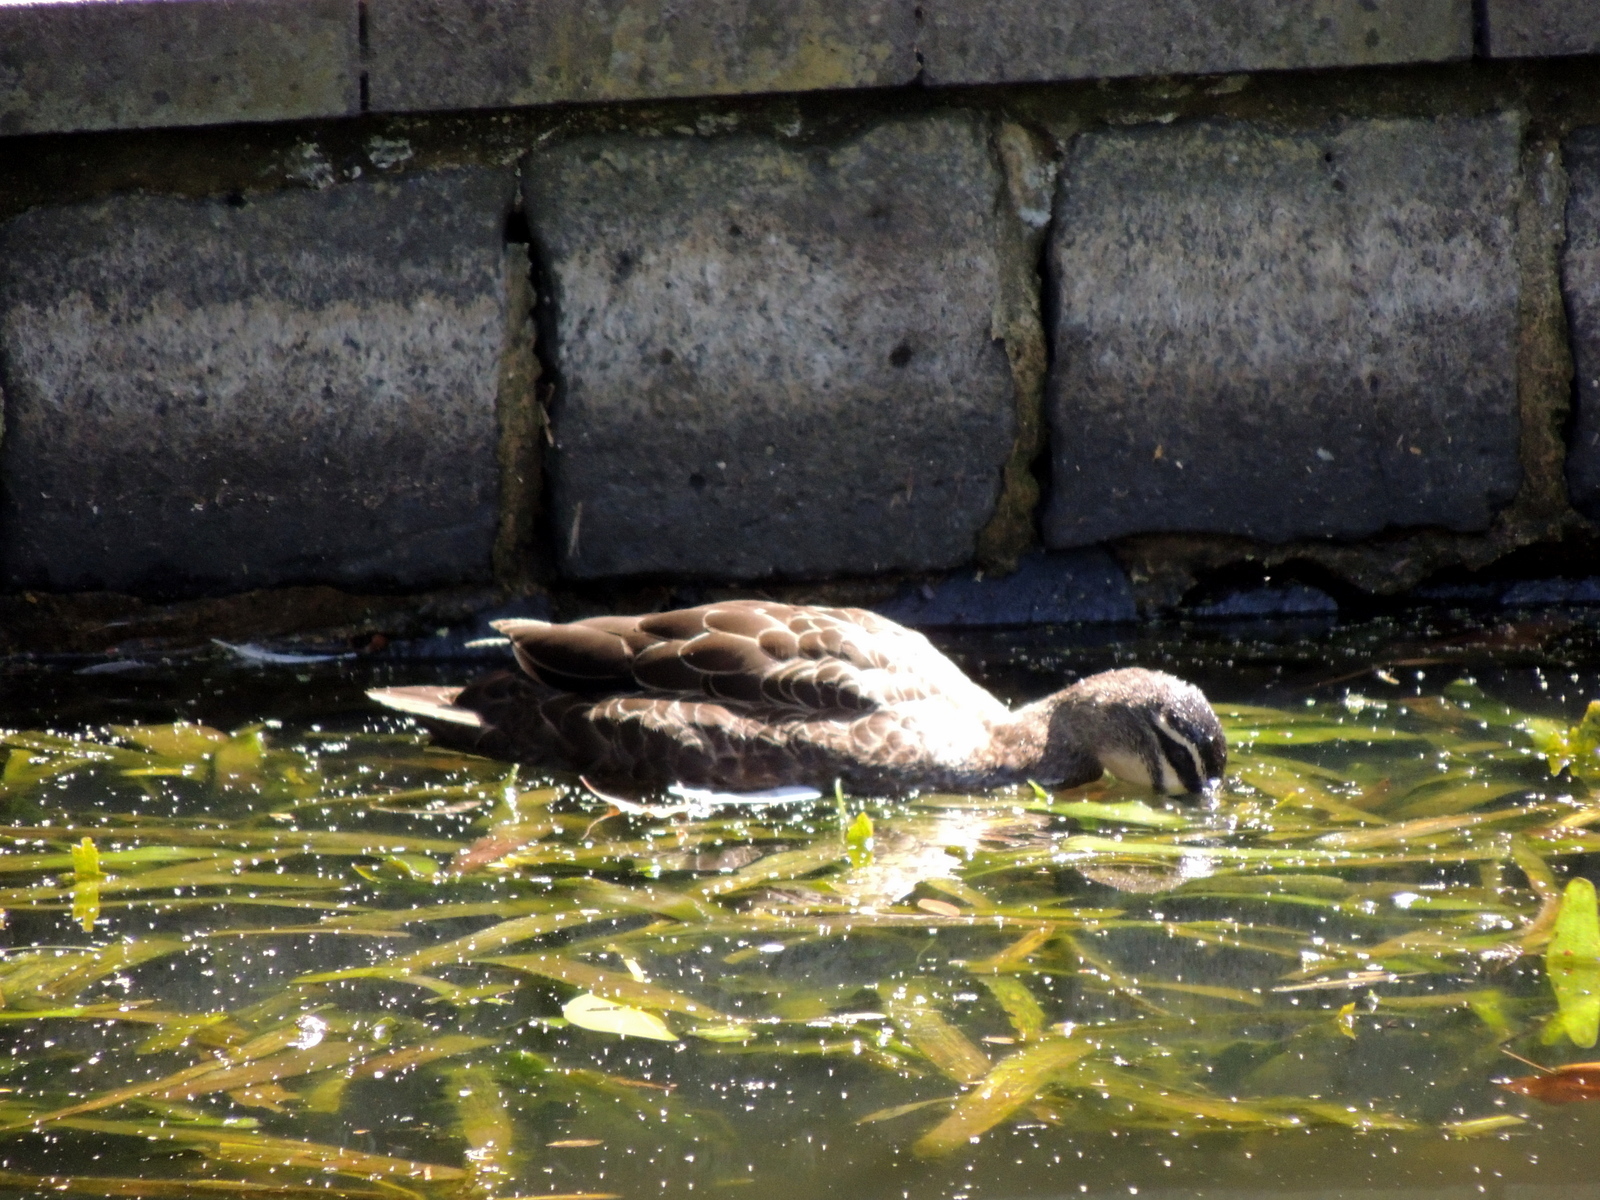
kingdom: Animalia
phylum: Chordata
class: Aves
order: Anseriformes
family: Anatidae
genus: Anas
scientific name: Anas superciliosa
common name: Pacific black duck
